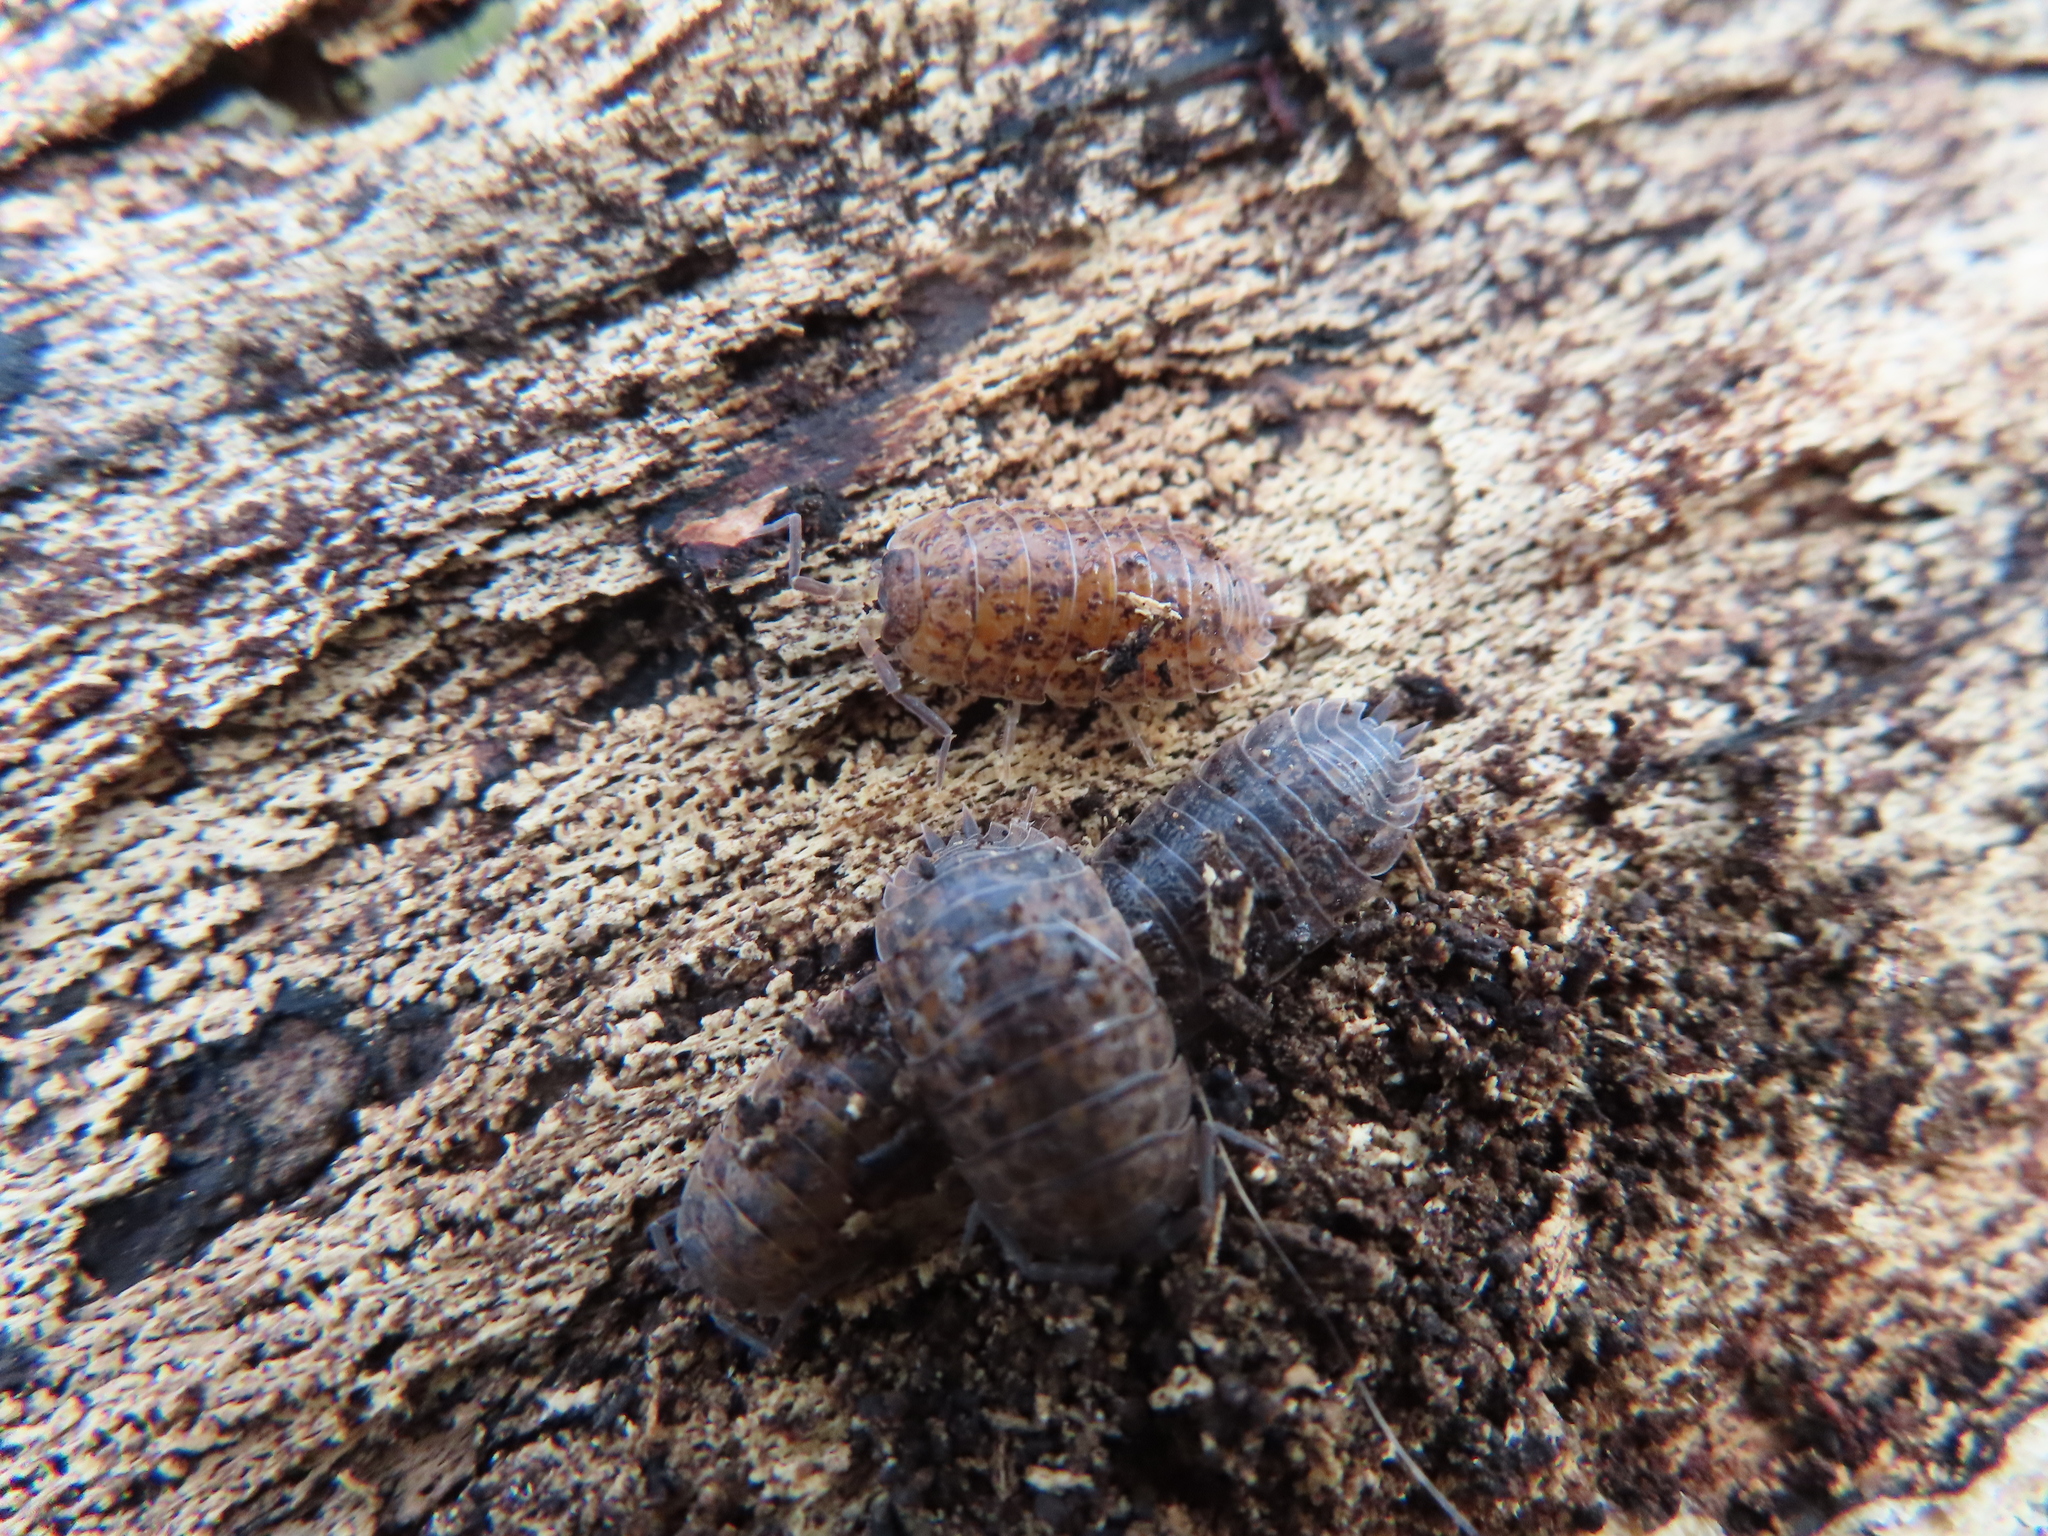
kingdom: Animalia
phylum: Arthropoda
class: Malacostraca
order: Isopoda
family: Trachelipodidae
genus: Trachelipus
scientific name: Trachelipus rathkii
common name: Isopod
